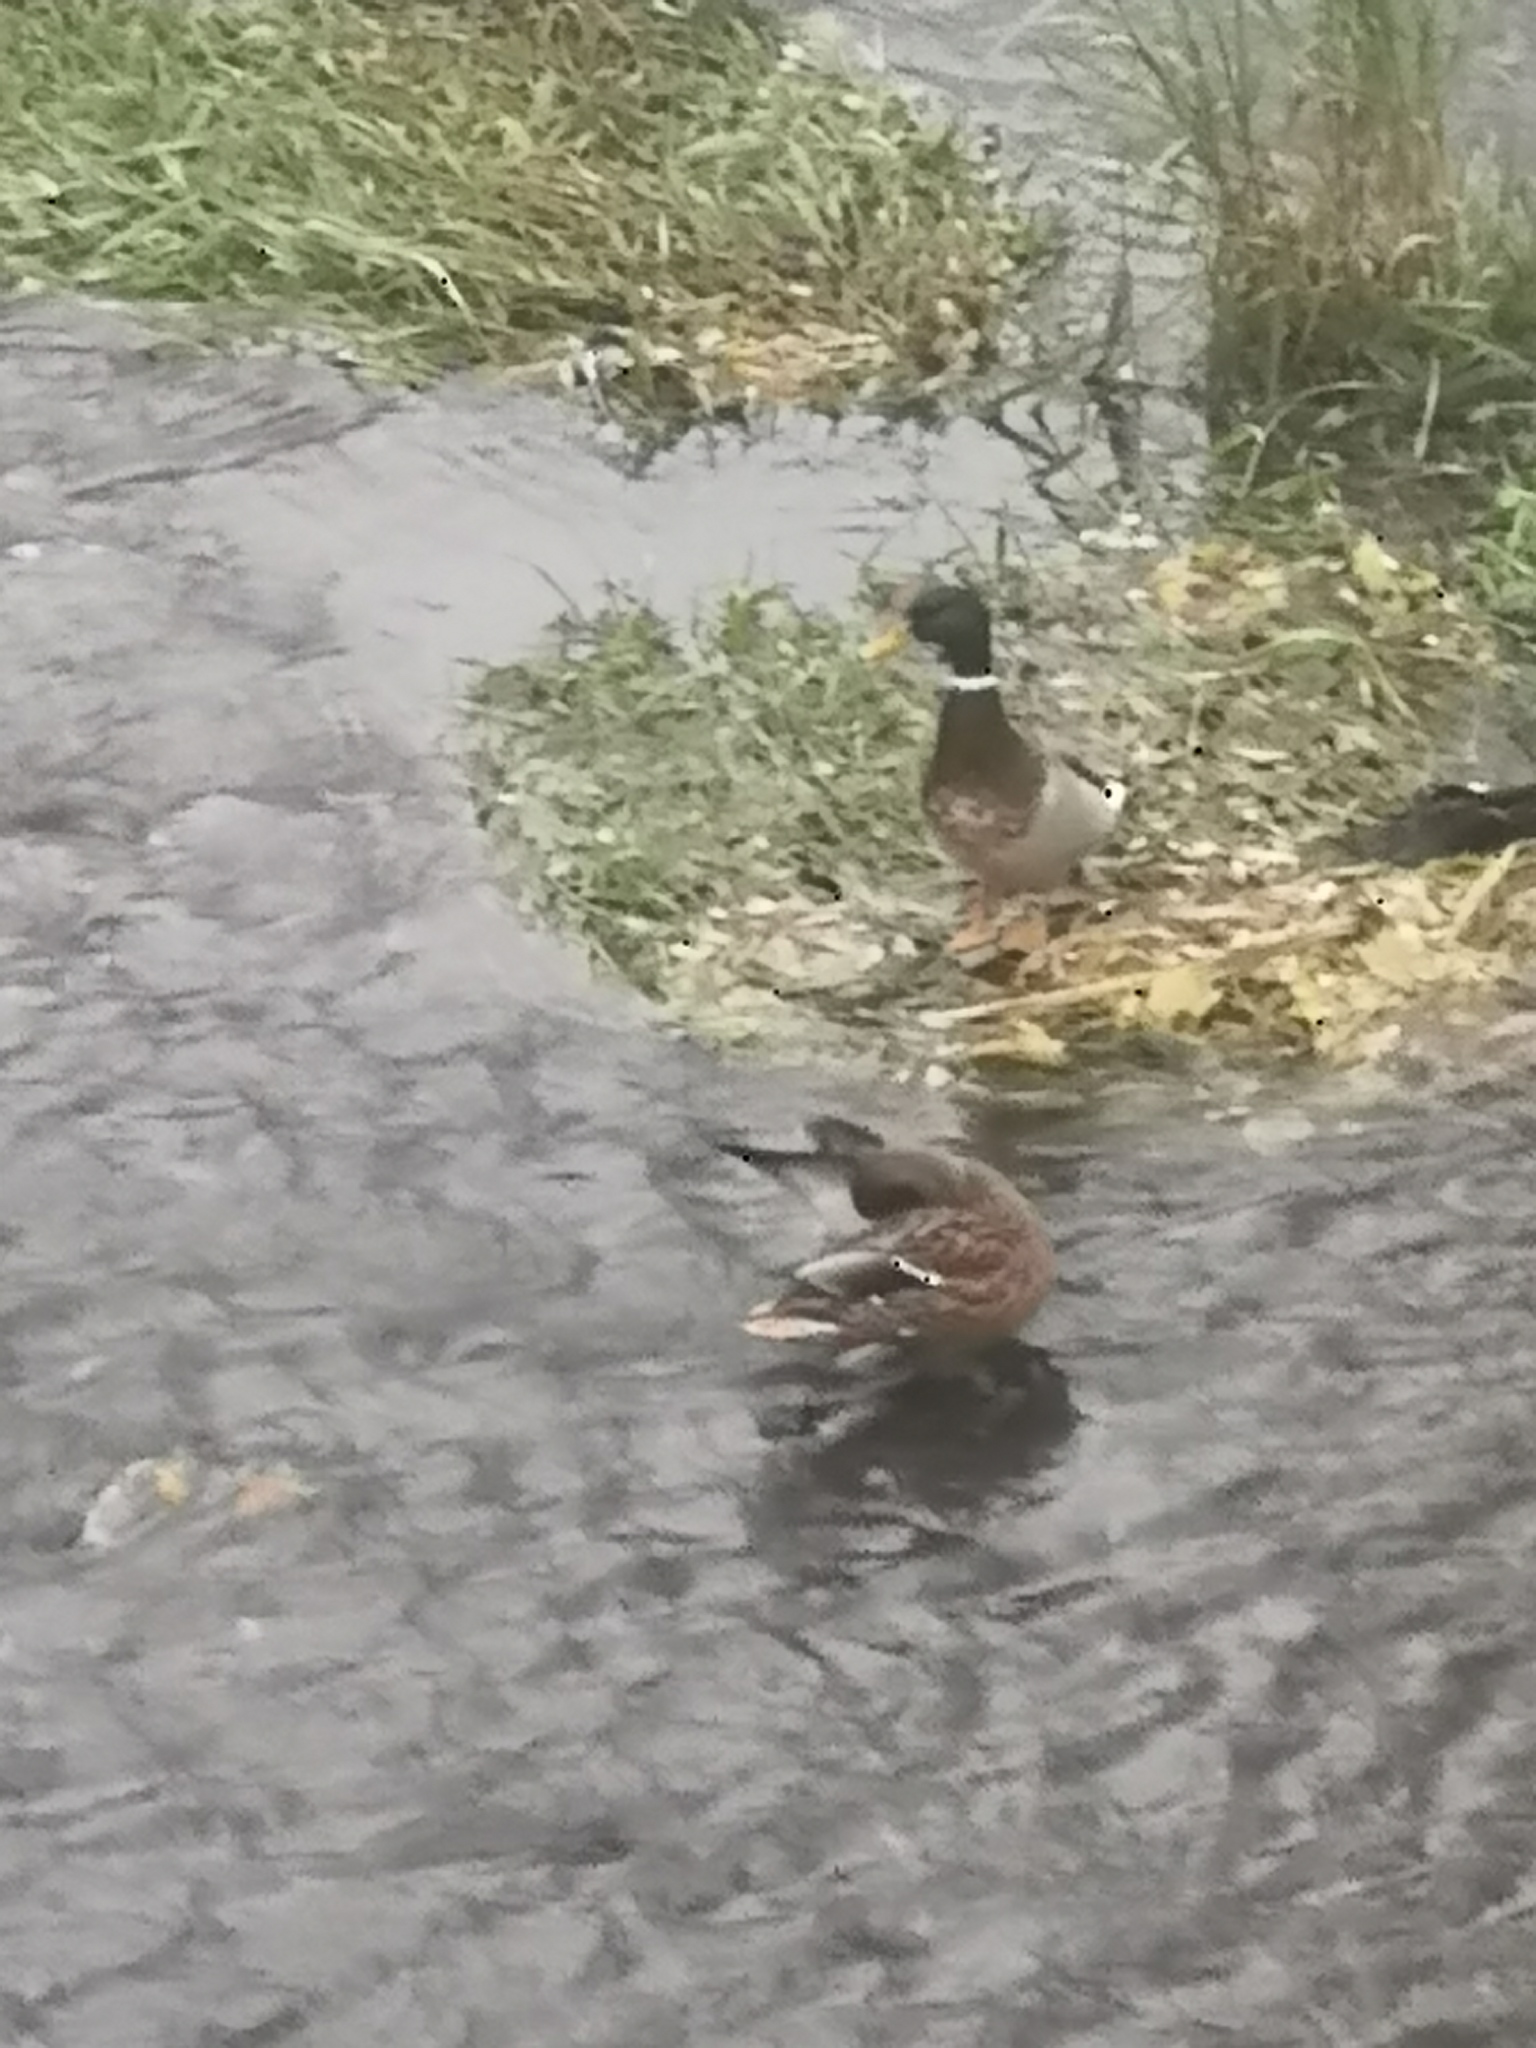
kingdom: Animalia
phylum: Chordata
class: Aves
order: Anseriformes
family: Anatidae
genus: Anas
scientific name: Anas platyrhynchos
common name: Mallard
